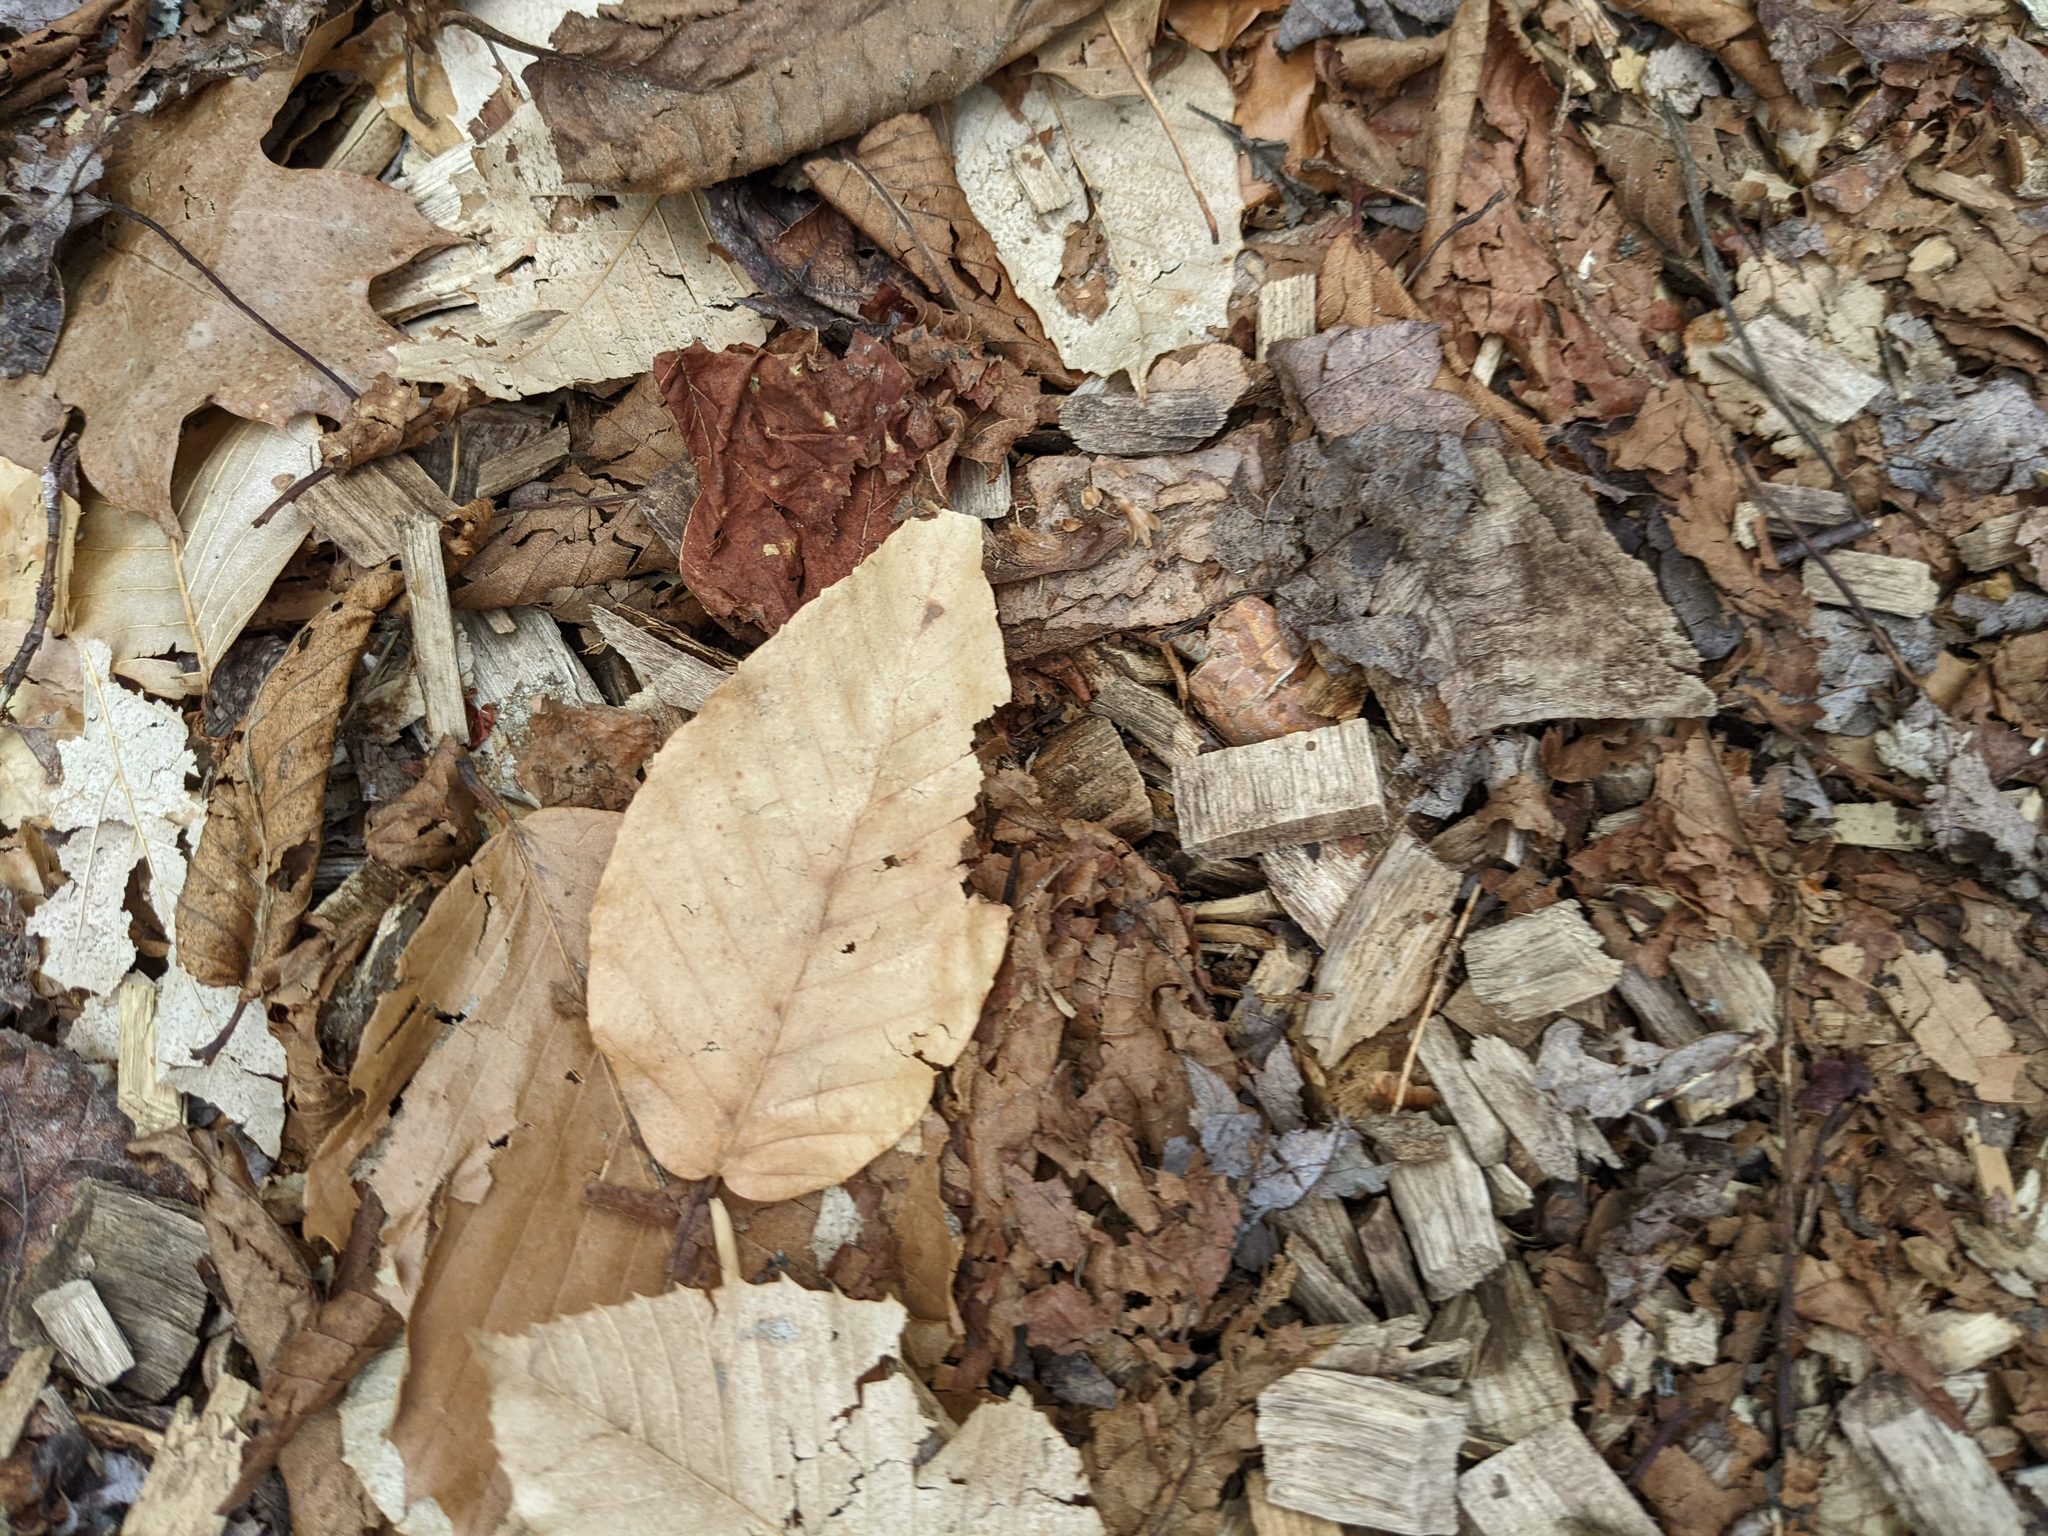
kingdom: Plantae
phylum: Tracheophyta
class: Magnoliopsida
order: Fagales
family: Fagaceae
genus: Fagus
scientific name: Fagus grandifolia
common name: American beech
